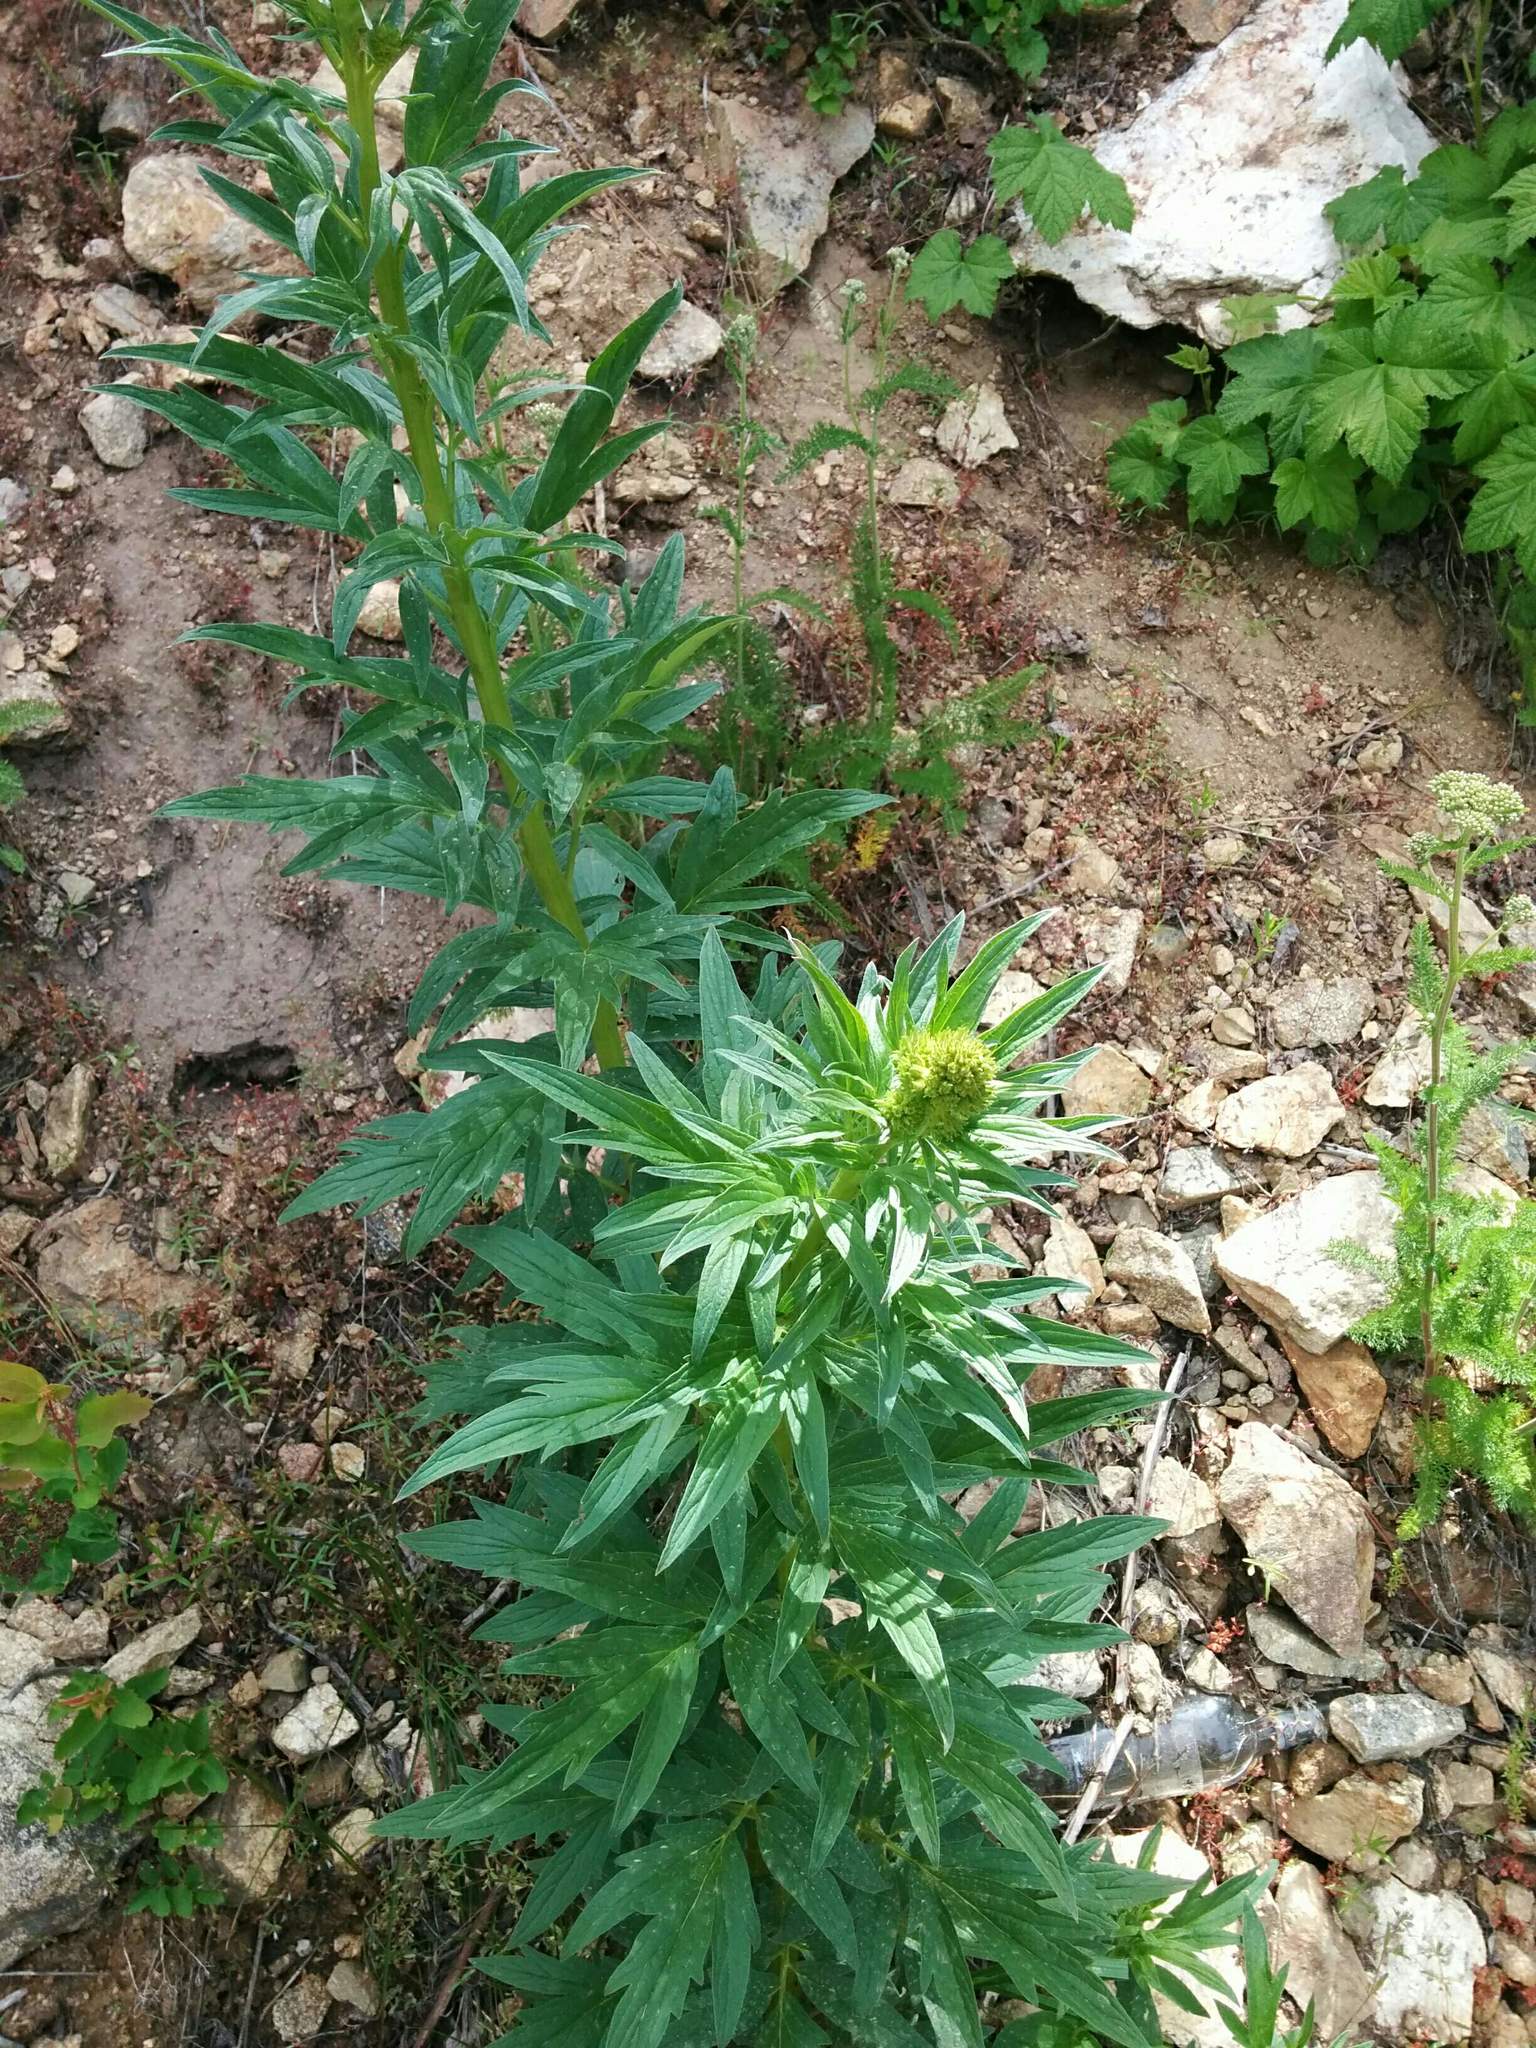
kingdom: Plantae
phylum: Tracheophyta
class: Magnoliopsida
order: Boraginales
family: Hydrophyllaceae
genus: Phacelia
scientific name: Phacelia procera
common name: Tall phacelia
